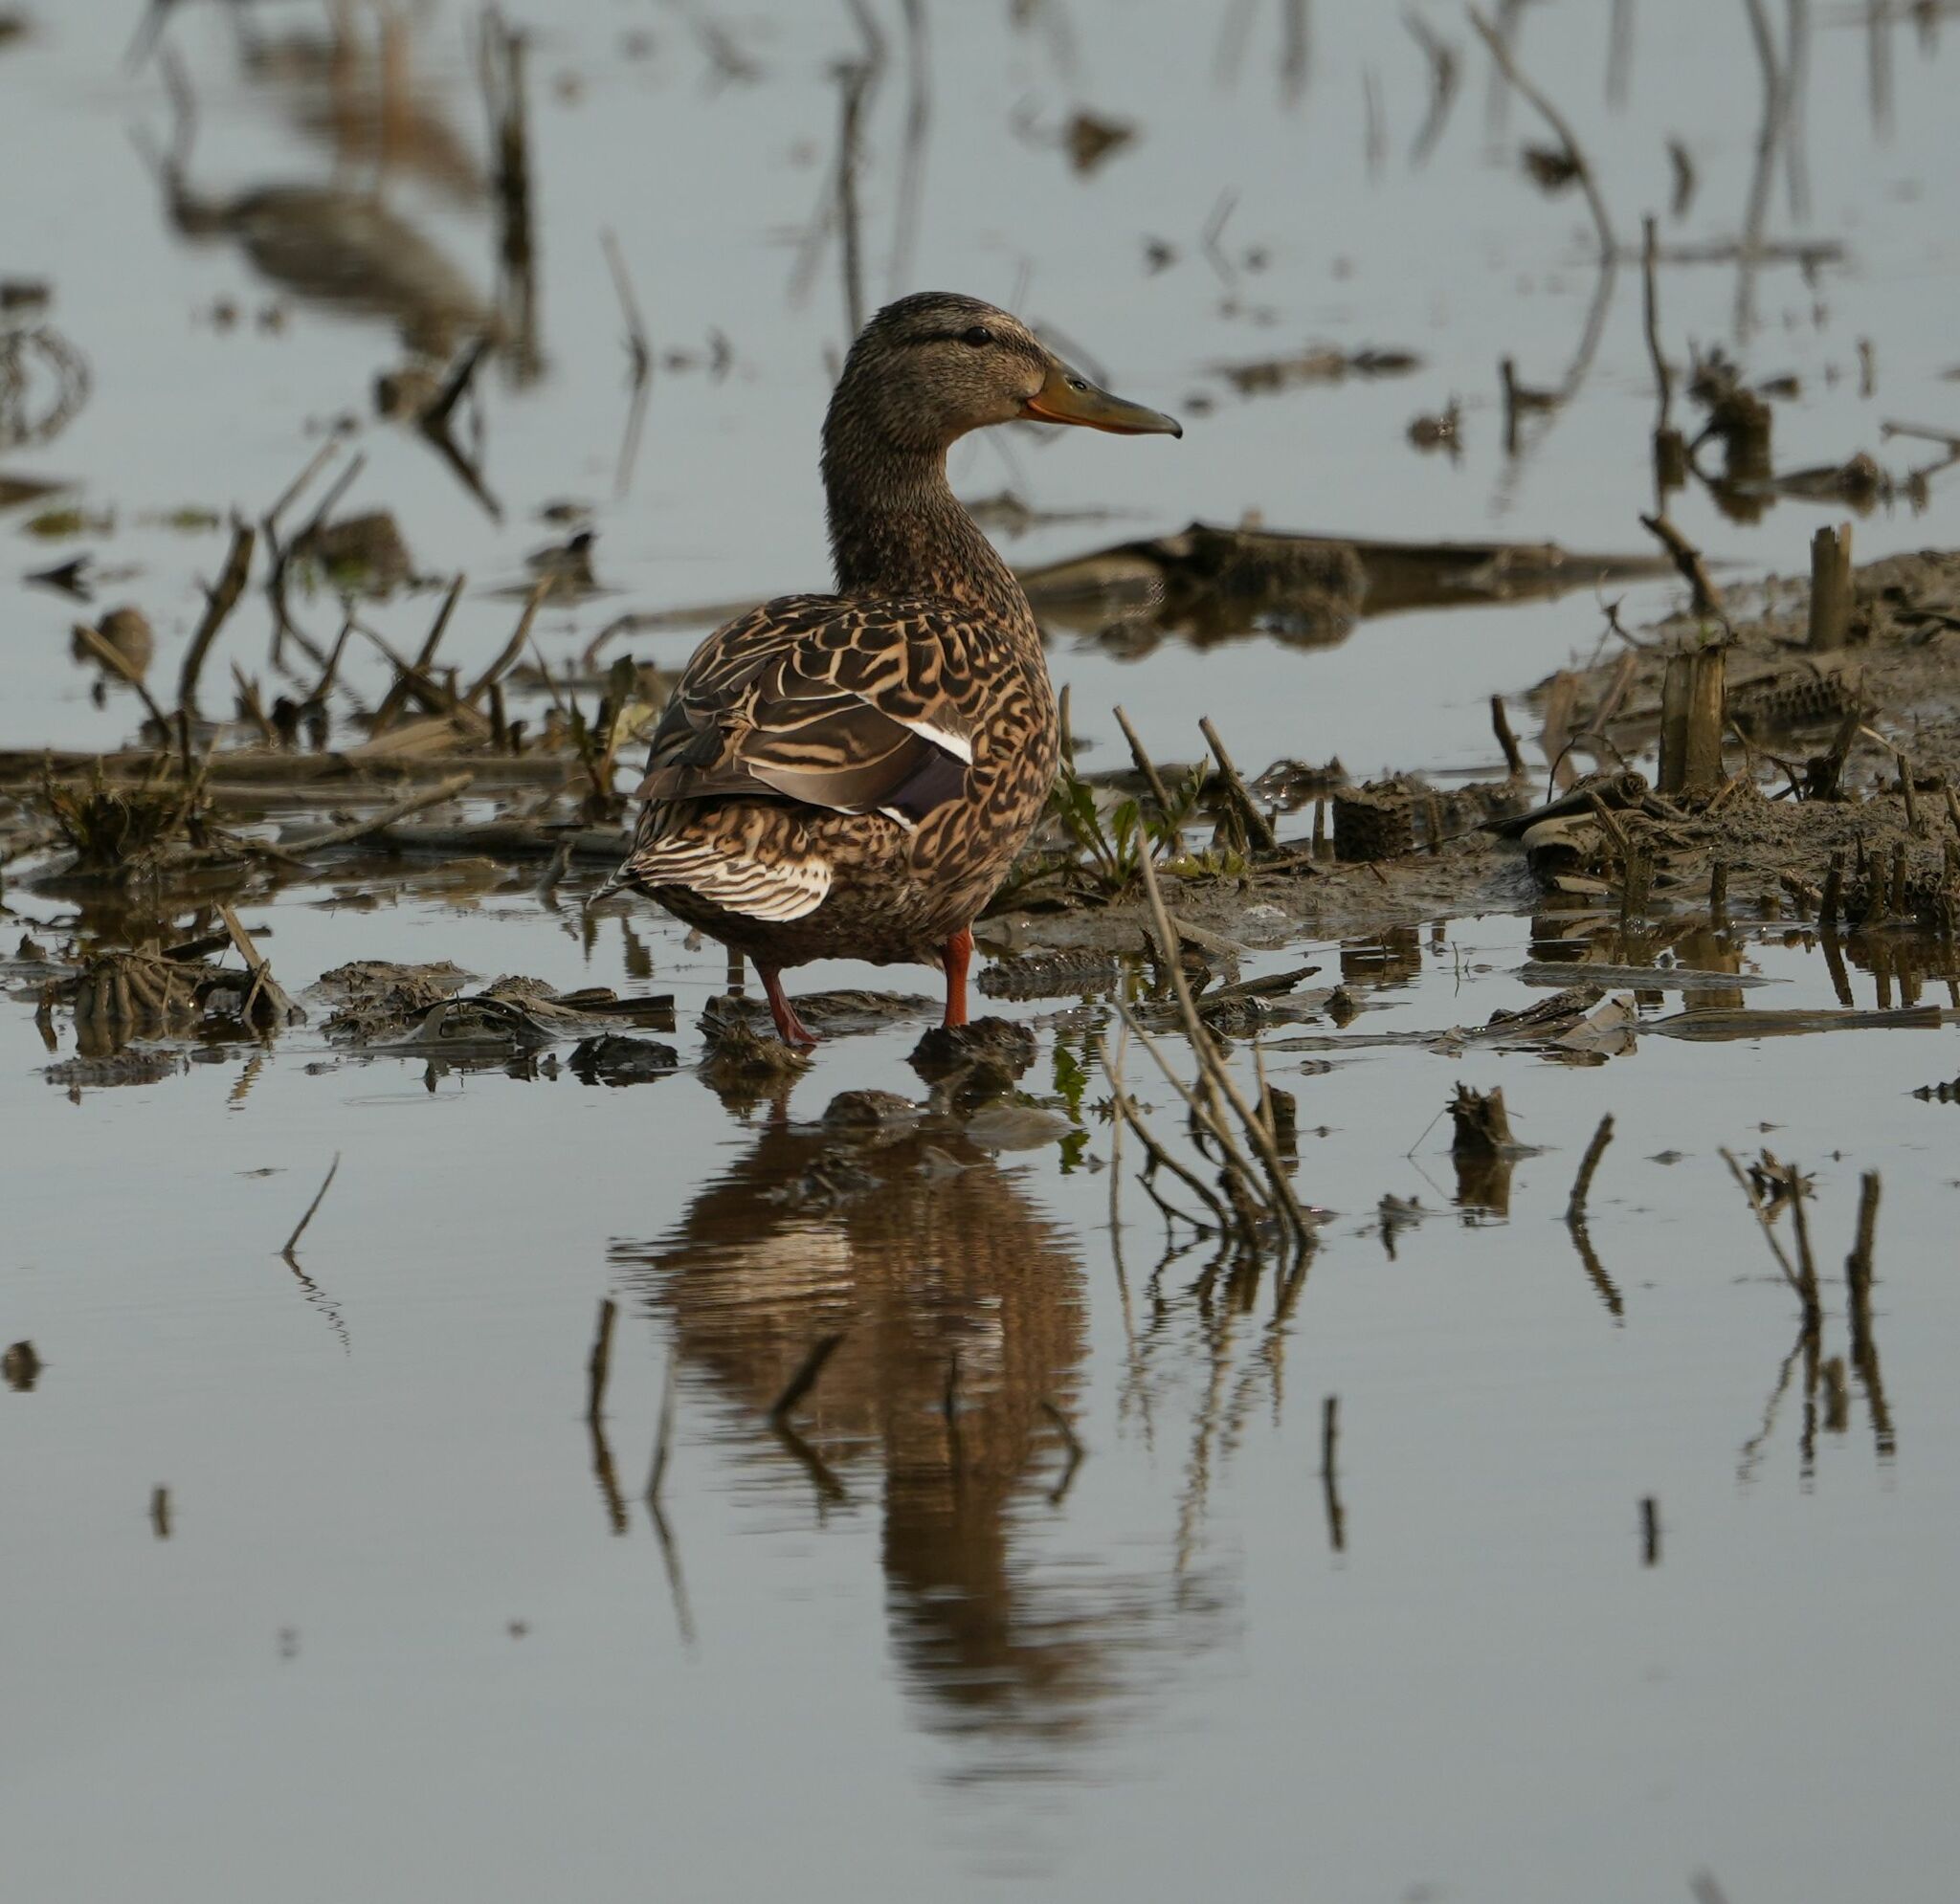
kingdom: Animalia
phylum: Chordata
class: Aves
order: Anseriformes
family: Anatidae
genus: Anas
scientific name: Anas platyrhynchos
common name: Mallard
